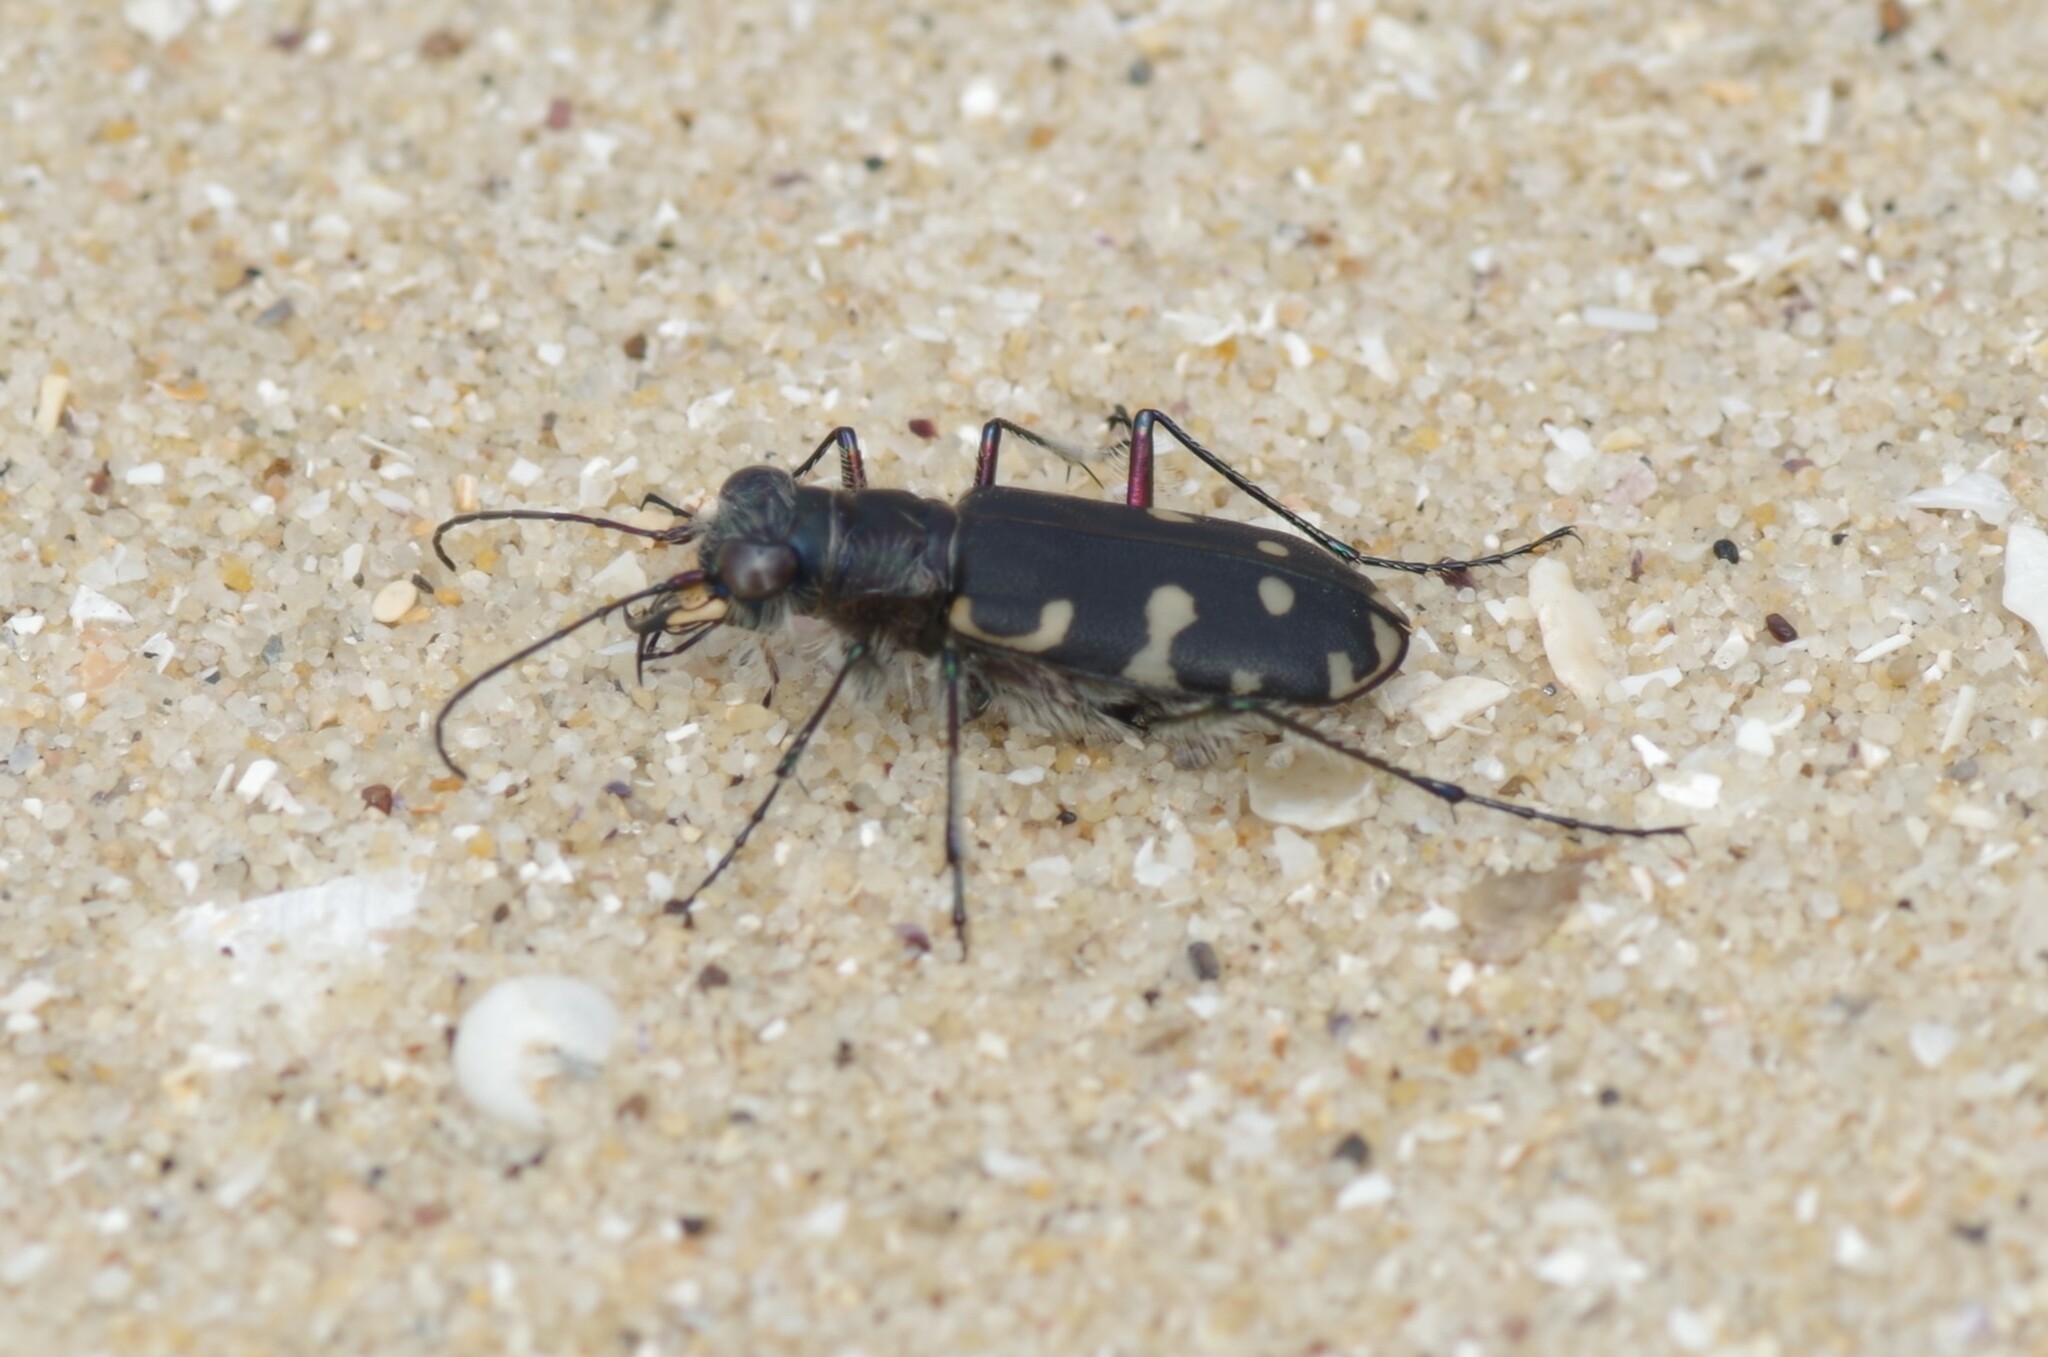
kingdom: Animalia
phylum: Arthropoda
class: Insecta
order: Coleoptera
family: Carabidae
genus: Cicindela
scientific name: Cicindela littoralis
